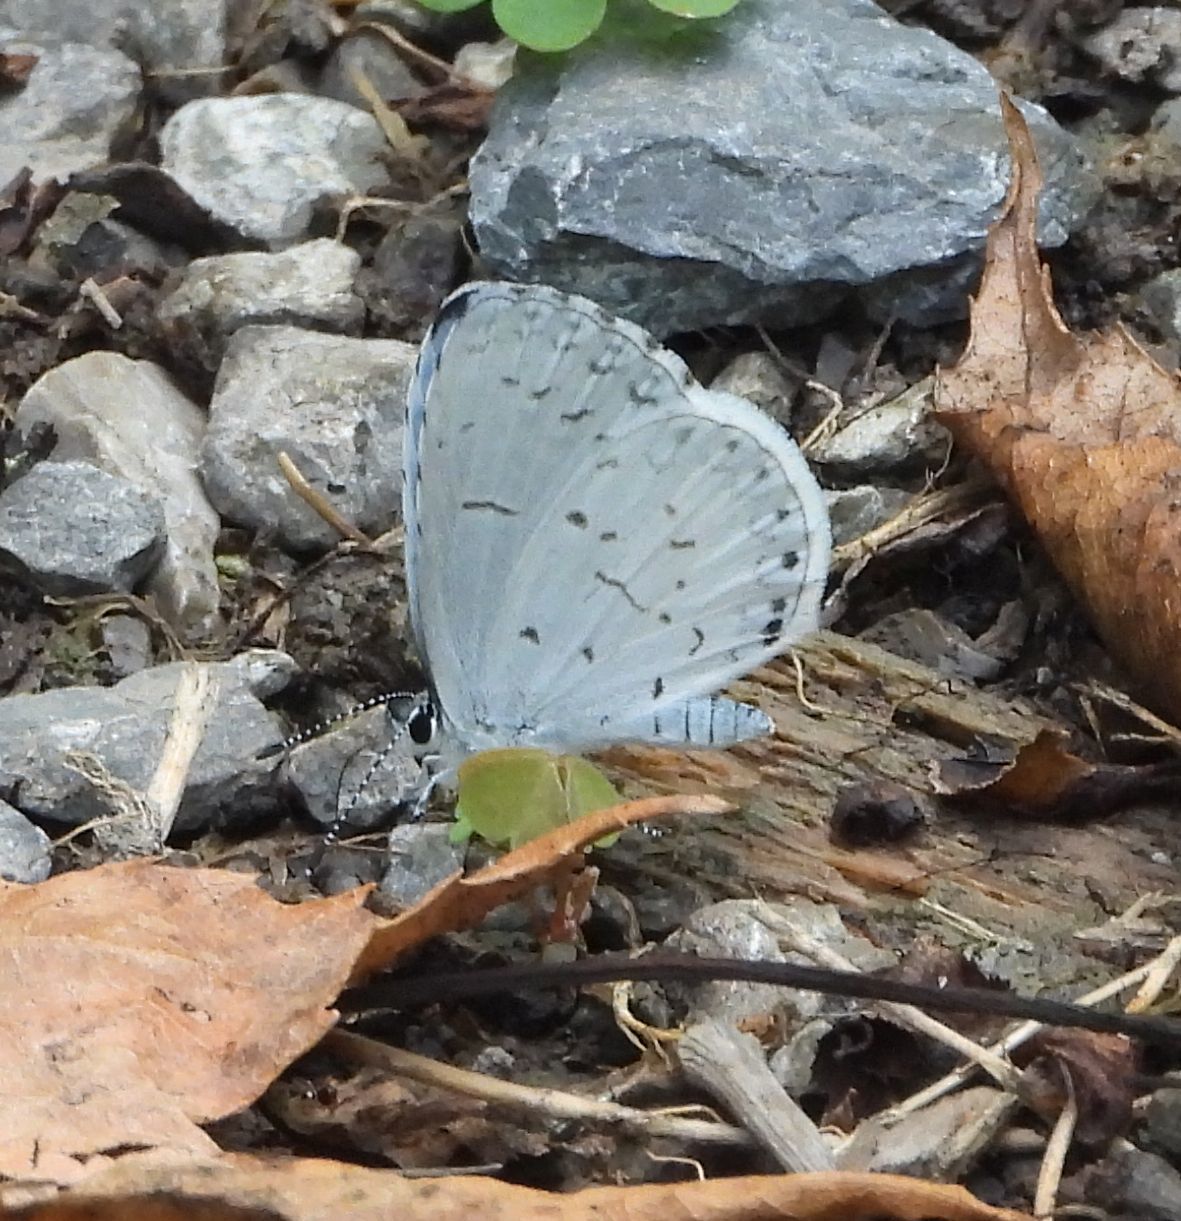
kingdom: Animalia
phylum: Arthropoda
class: Insecta
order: Lepidoptera
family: Lycaenidae
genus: Celastrina
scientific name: Celastrina
